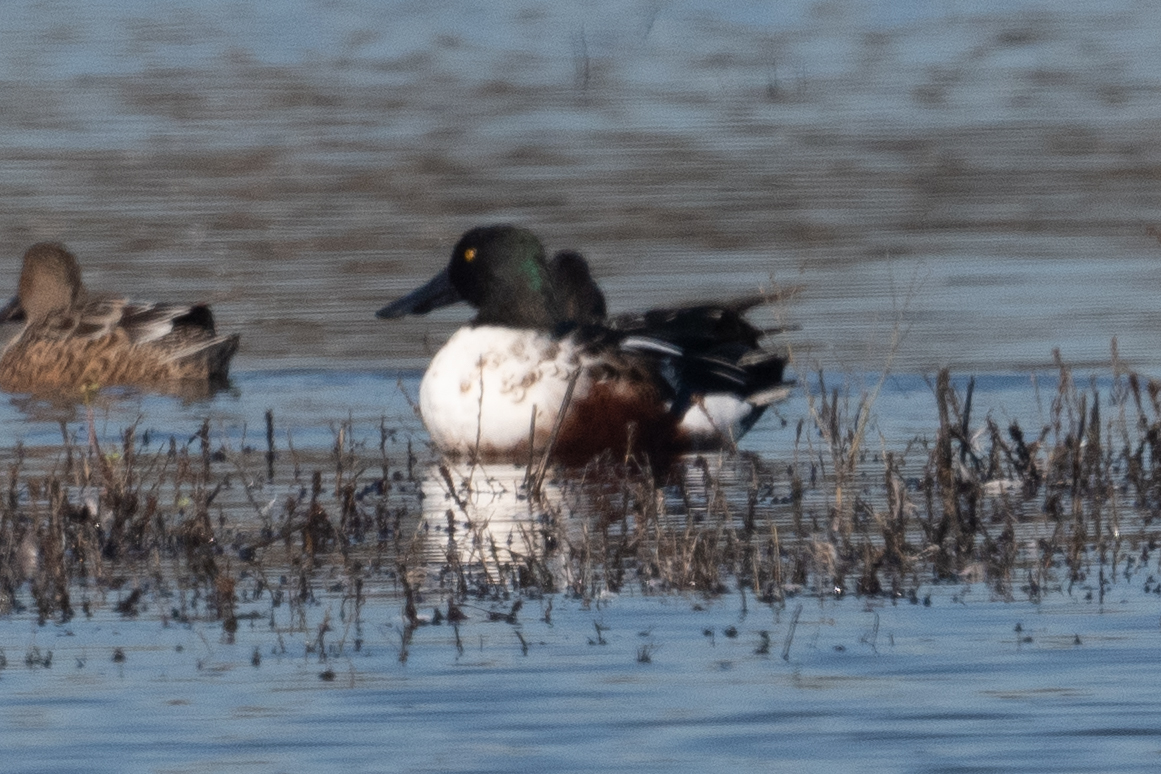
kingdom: Animalia
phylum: Chordata
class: Aves
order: Anseriformes
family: Anatidae
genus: Spatula
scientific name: Spatula clypeata
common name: Northern shoveler
